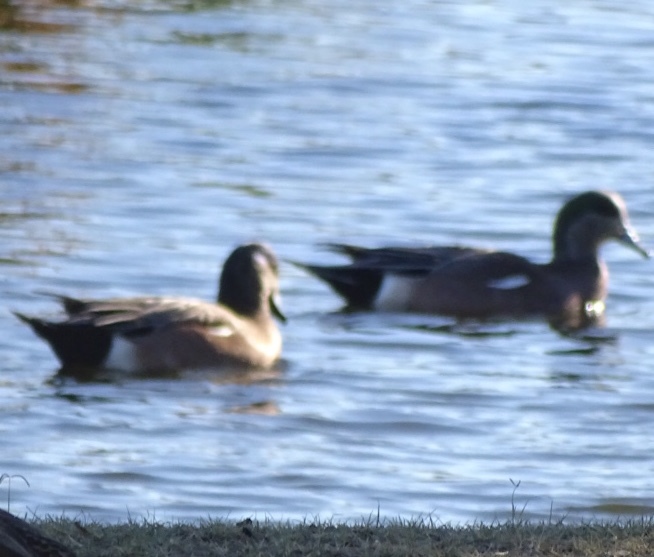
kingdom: Animalia
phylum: Chordata
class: Aves
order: Anseriformes
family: Anatidae
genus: Mareca
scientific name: Mareca americana
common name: American wigeon
